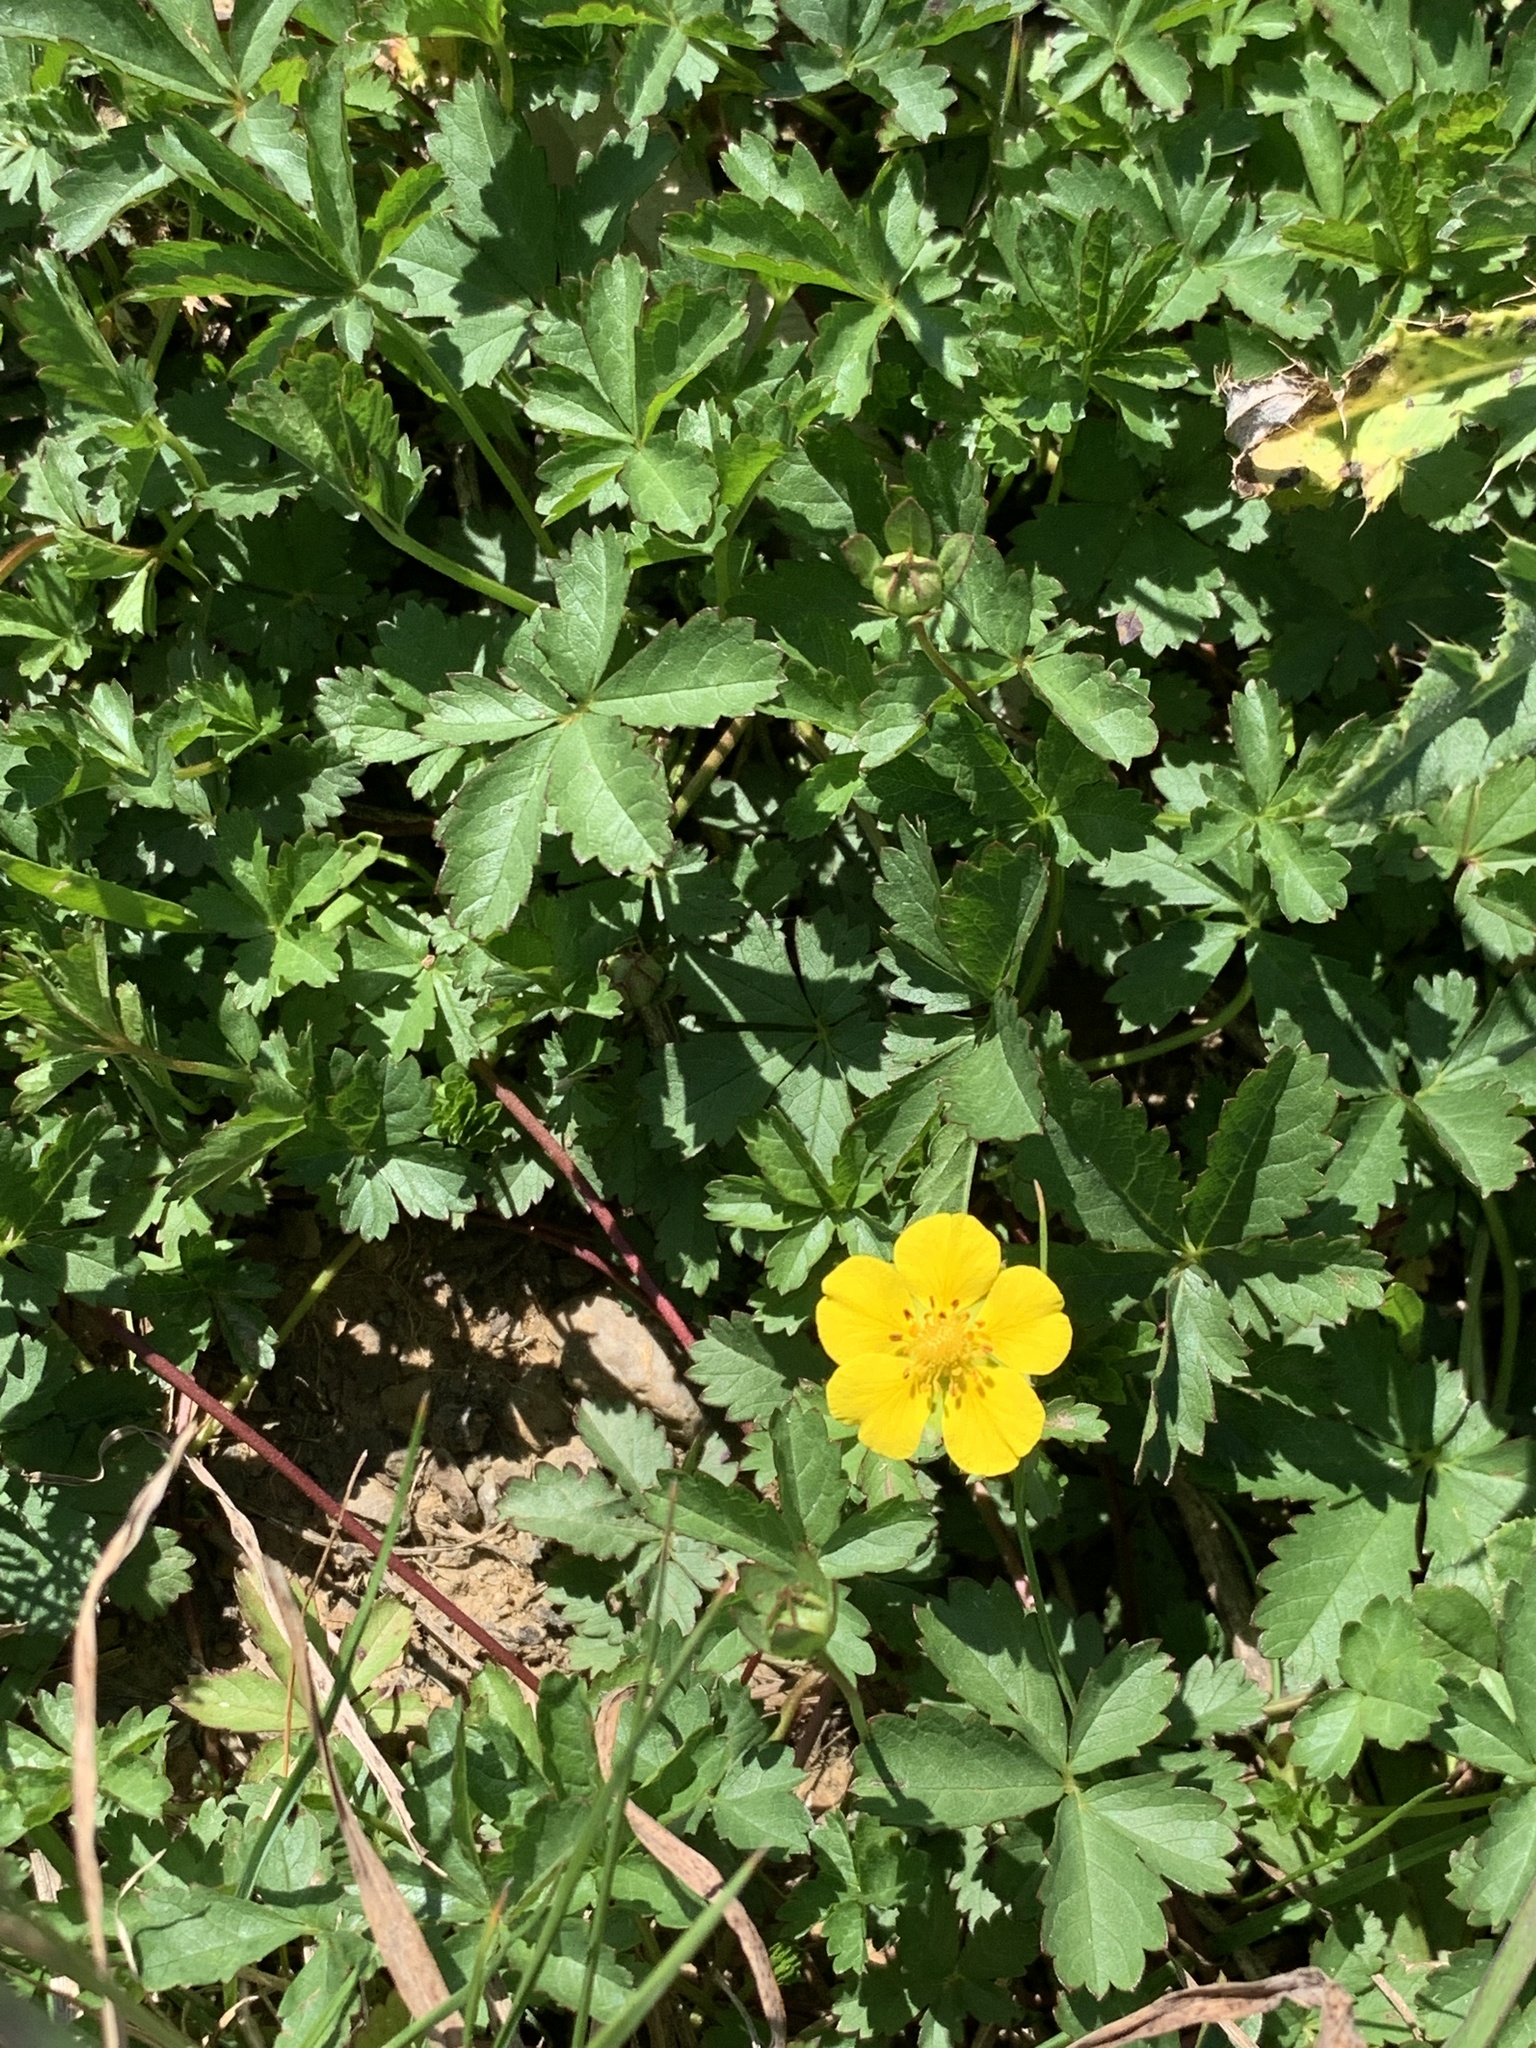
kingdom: Plantae
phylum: Tracheophyta
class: Magnoliopsida
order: Rosales
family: Rosaceae
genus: Potentilla
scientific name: Potentilla reptans
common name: Creeping cinquefoil
